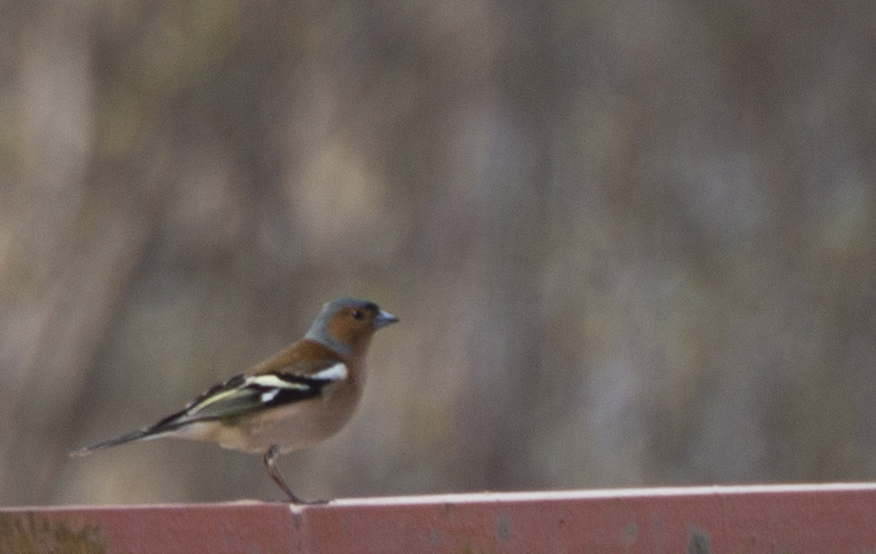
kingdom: Animalia
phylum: Chordata
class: Aves
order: Passeriformes
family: Fringillidae
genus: Fringilla
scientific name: Fringilla coelebs
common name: Common chaffinch
